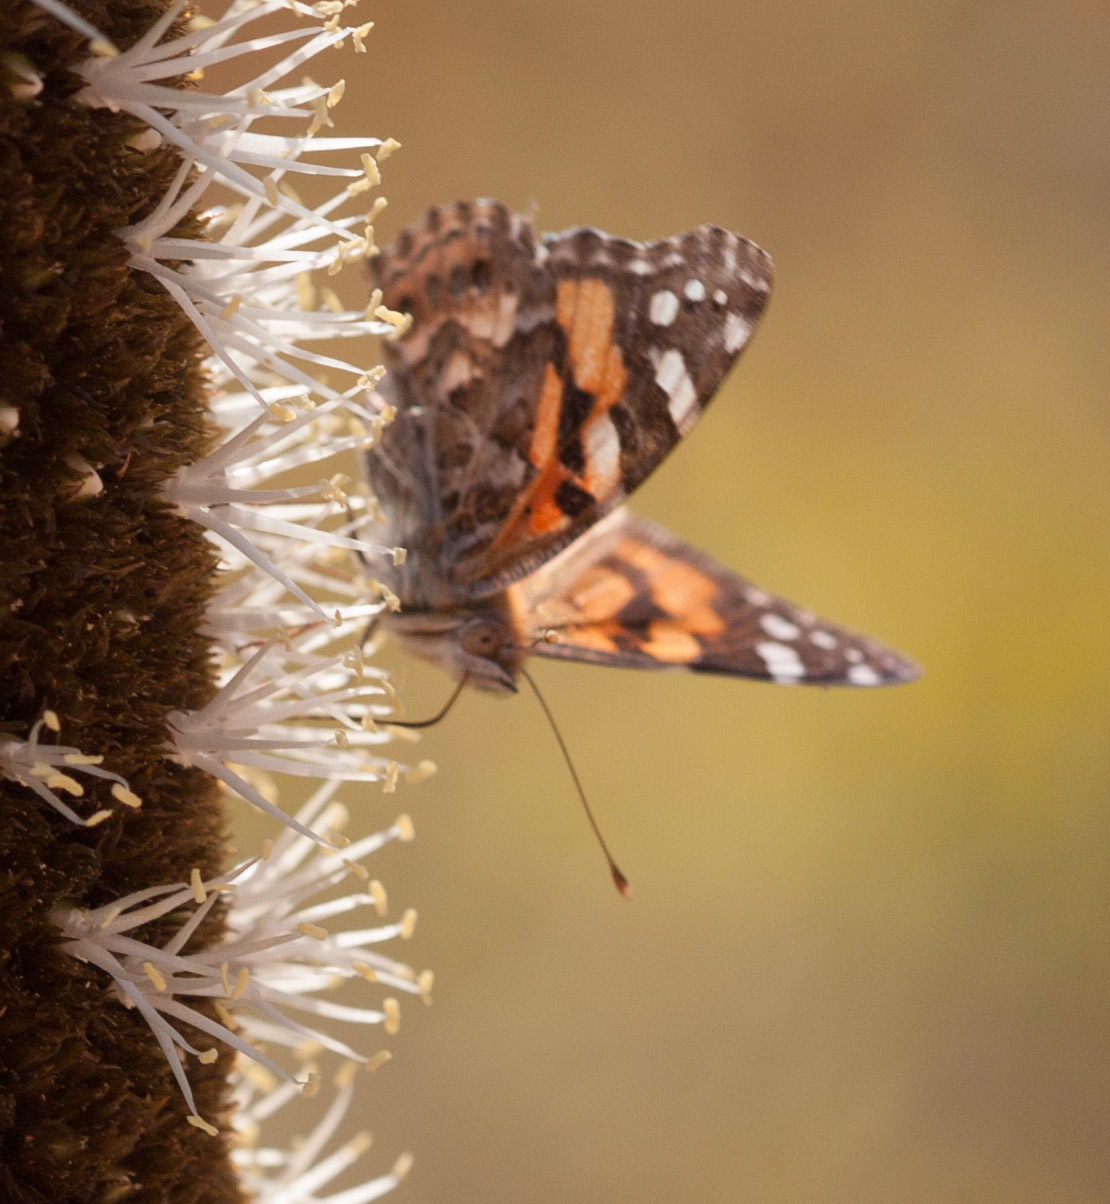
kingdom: Animalia
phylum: Arthropoda
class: Insecta
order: Lepidoptera
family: Nymphalidae
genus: Vanessa
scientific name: Vanessa kershawi
